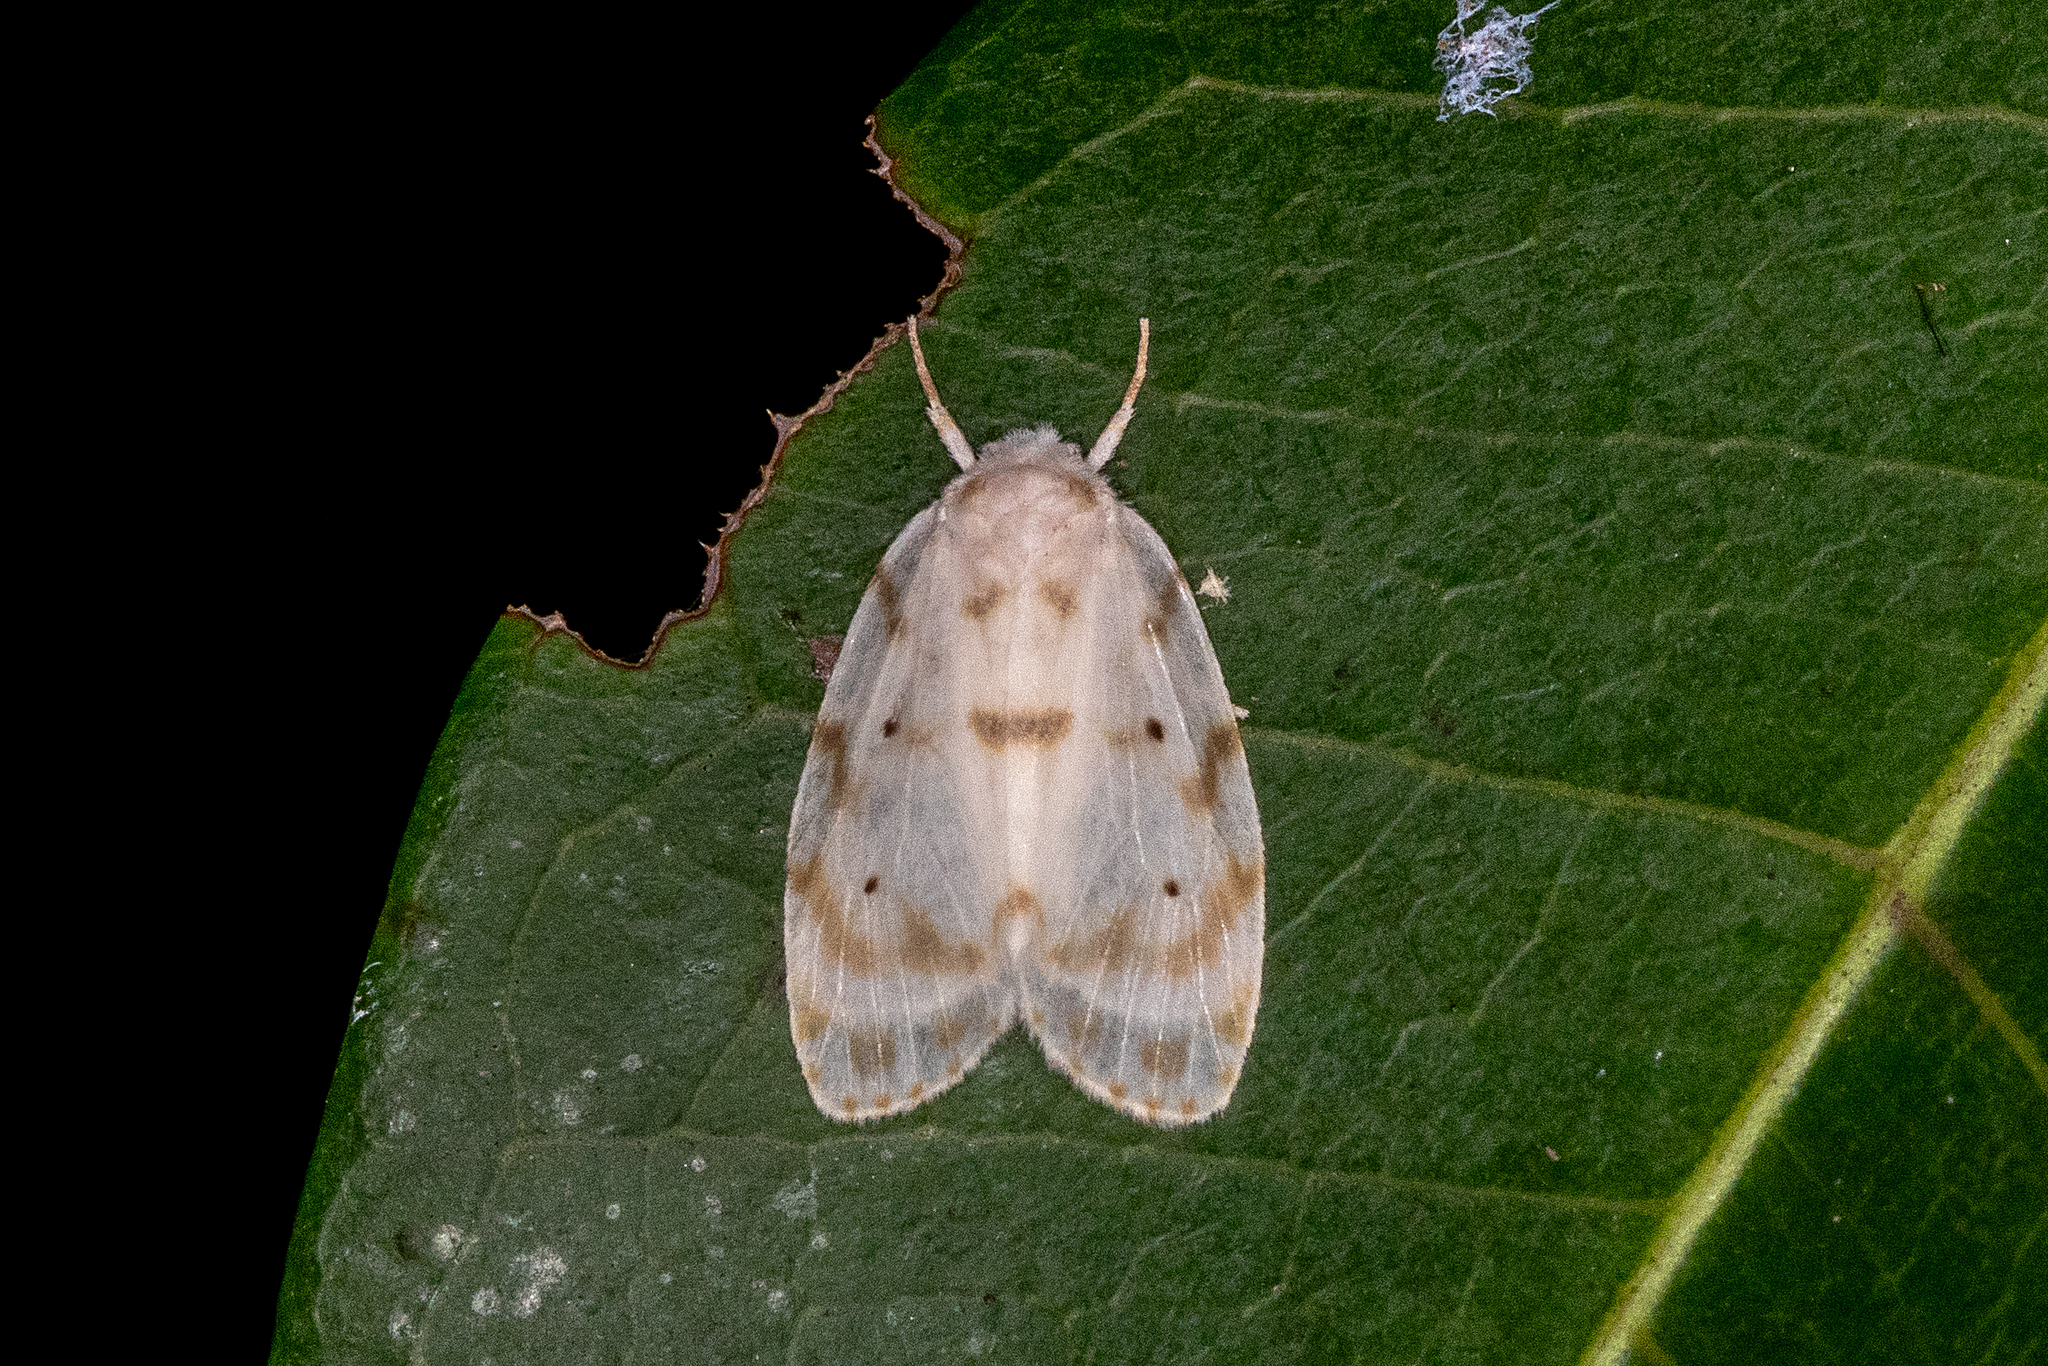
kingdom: Animalia
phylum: Arthropoda
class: Insecta
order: Lepidoptera
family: Erebidae
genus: Schistophleps
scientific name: Schistophleps albida
